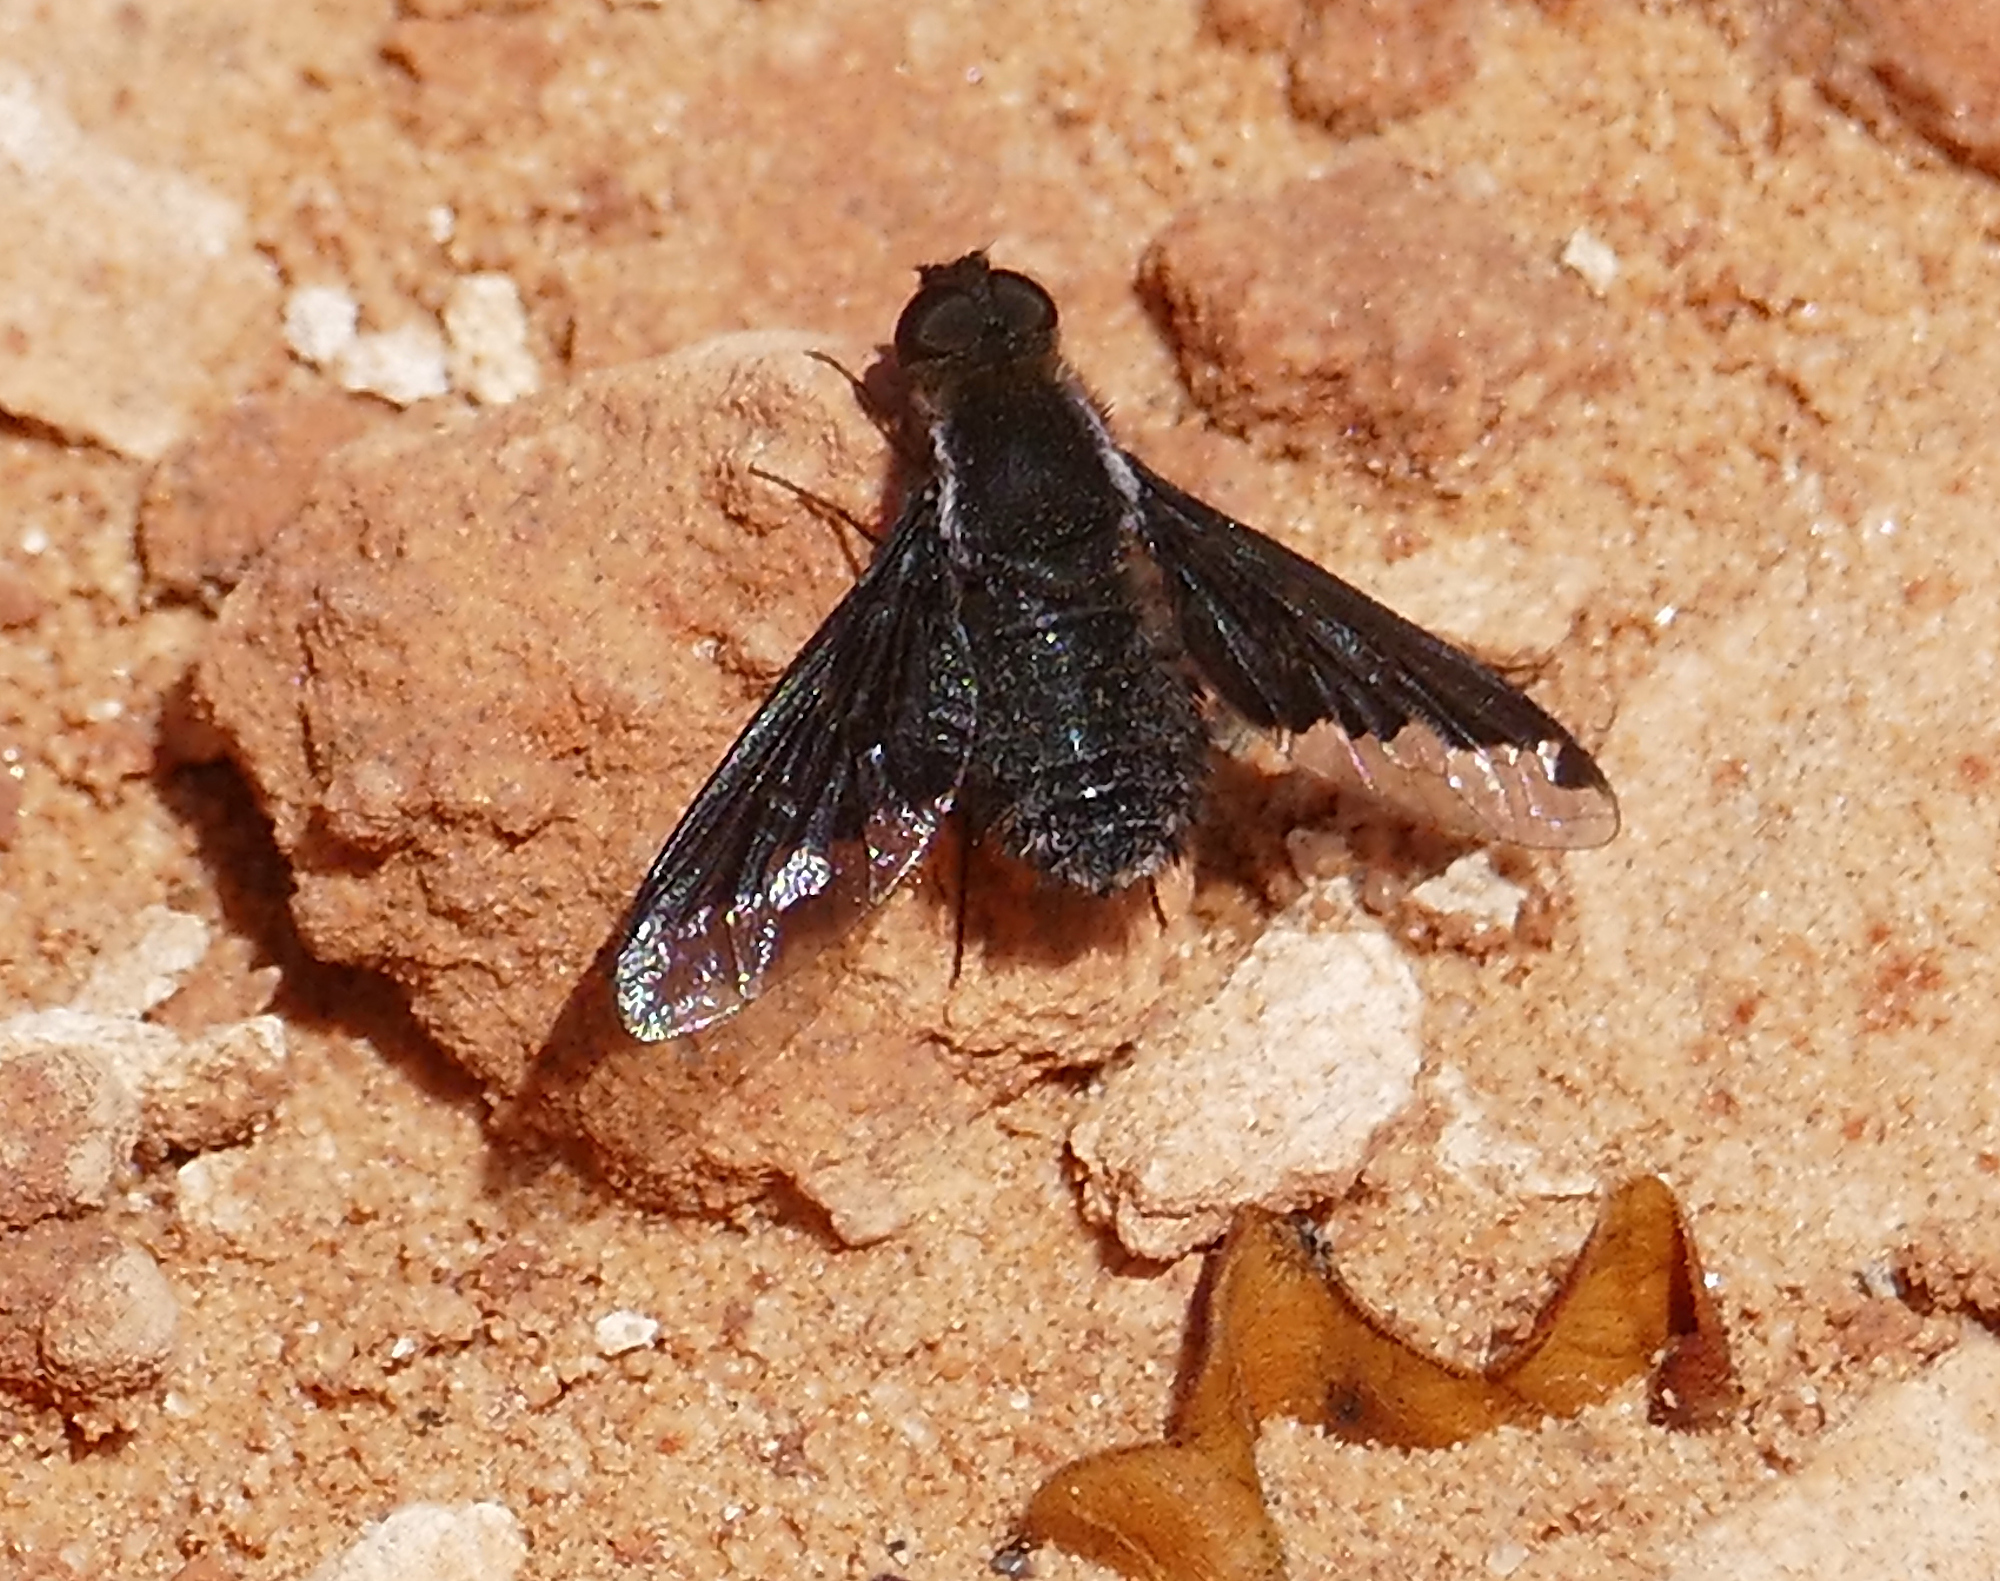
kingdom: Animalia
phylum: Arthropoda
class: Insecta
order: Diptera
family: Bombyliidae
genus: Hemipenthes
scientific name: Hemipenthes sinuosus
